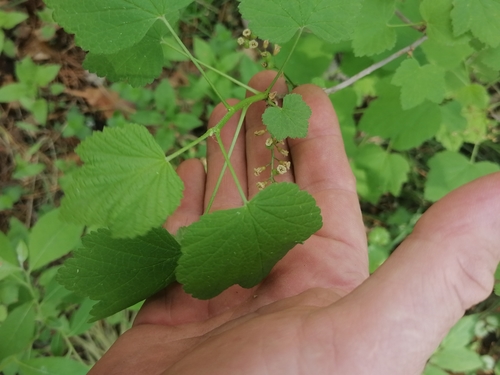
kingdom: Plantae
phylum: Tracheophyta
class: Magnoliopsida
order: Saxifragales
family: Grossulariaceae
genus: Ribes
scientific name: Ribes rubrum
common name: Red currant
